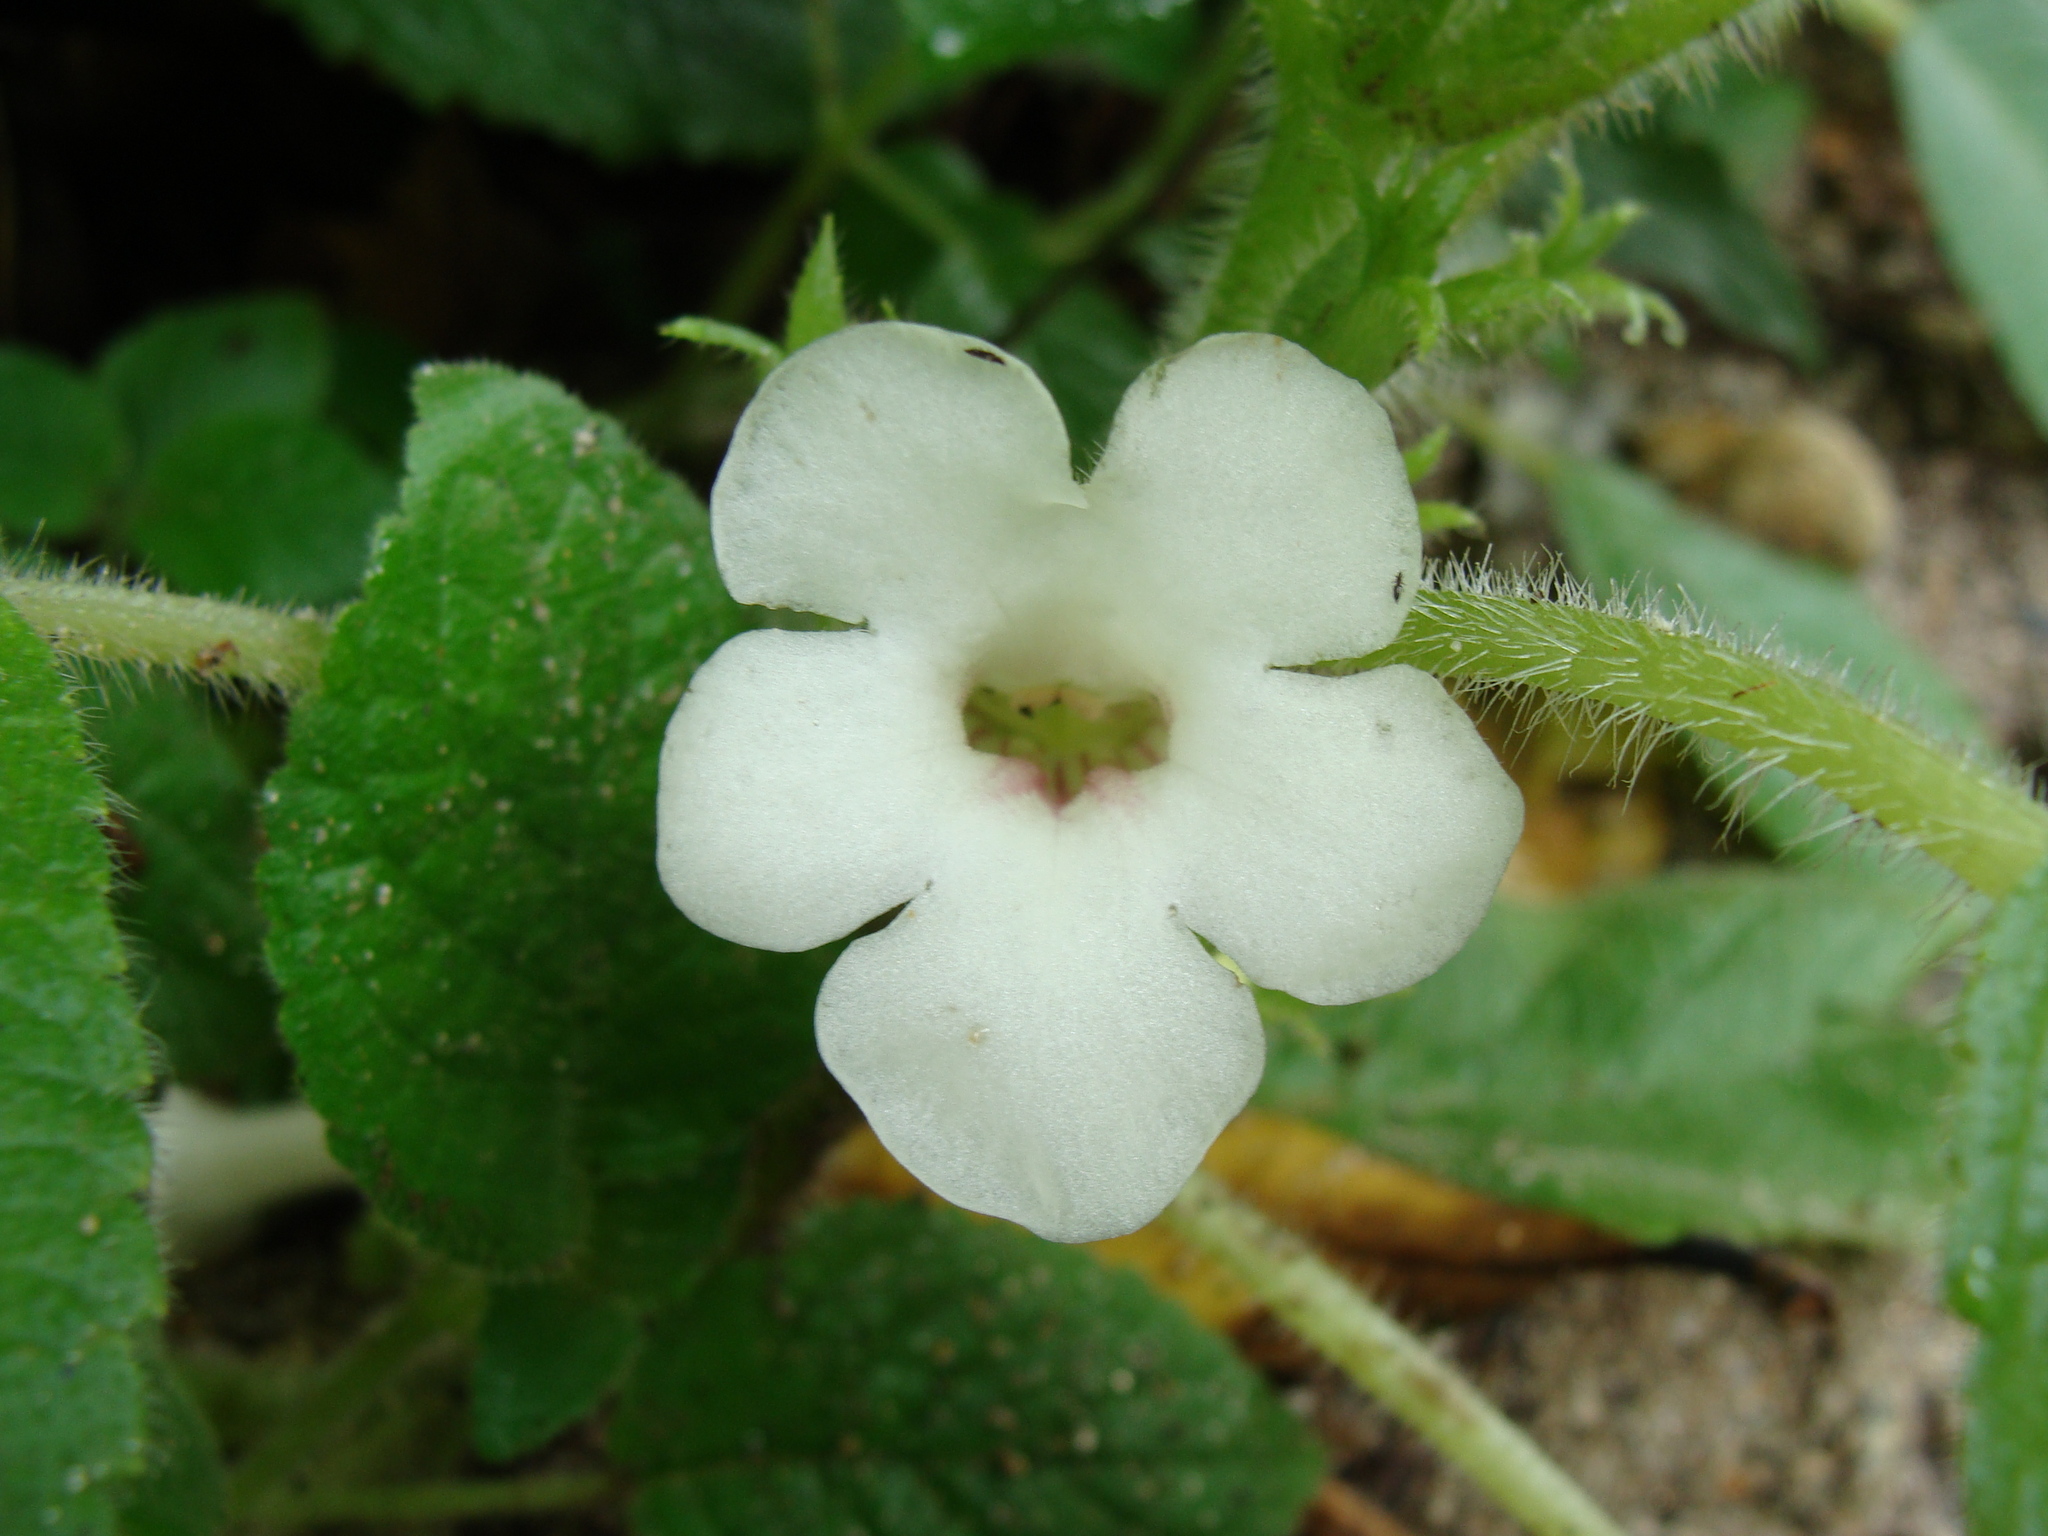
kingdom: Plantae
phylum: Tracheophyta
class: Magnoliopsida
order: Lamiales
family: Gesneriaceae
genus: Chrysothemis
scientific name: Chrysothemis panamensis
